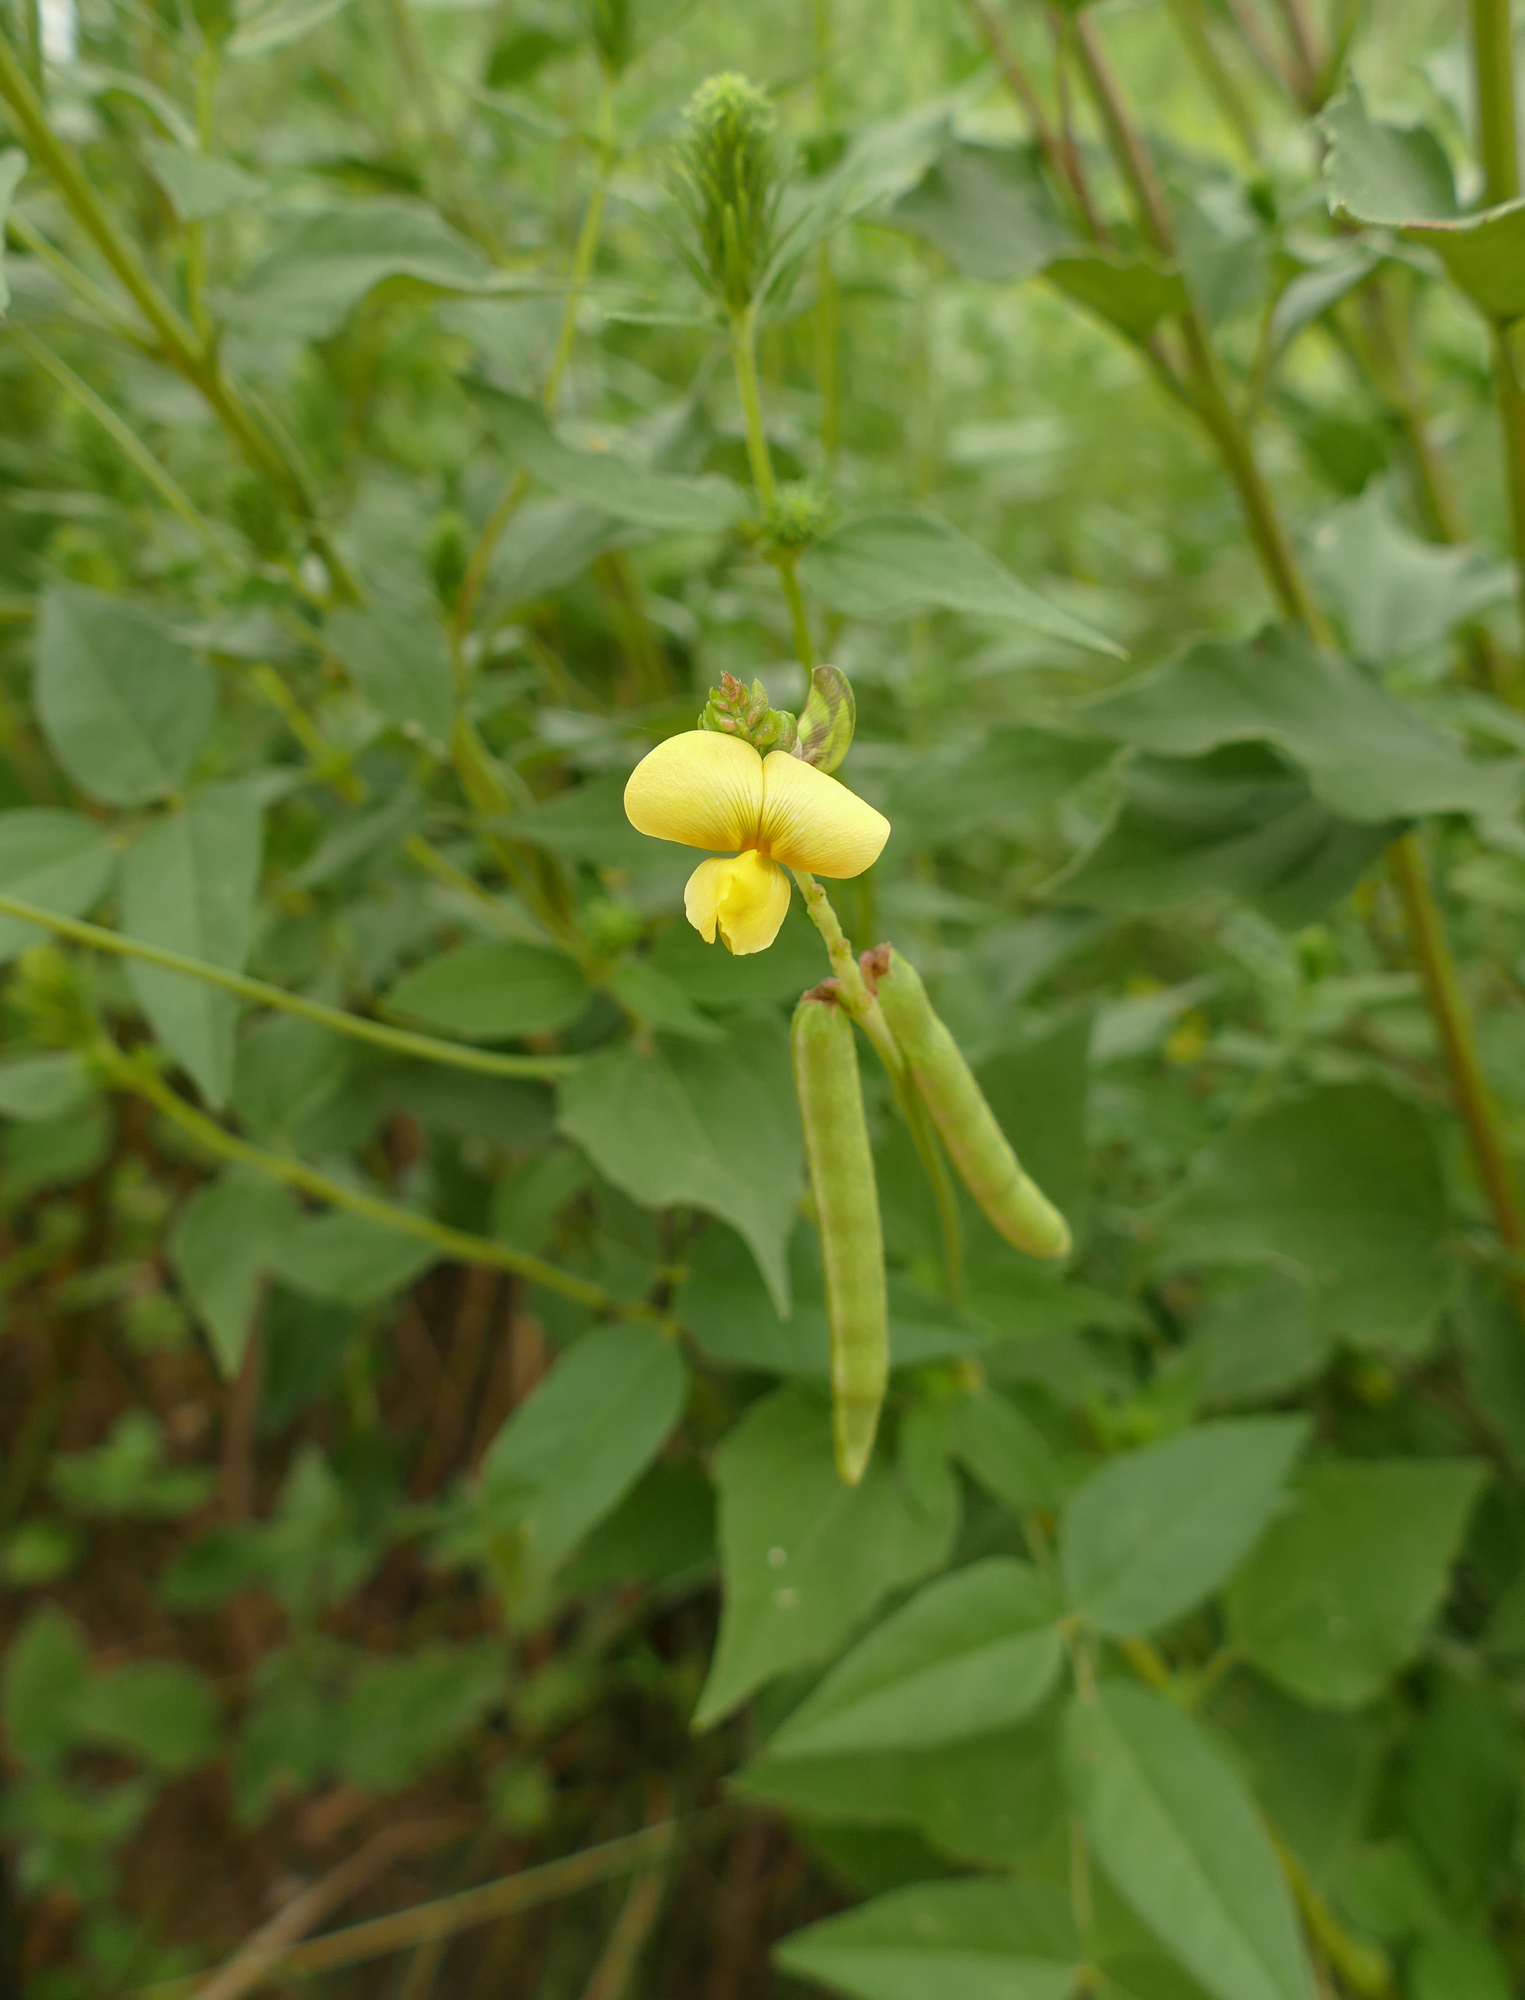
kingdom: Plantae
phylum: Tracheophyta
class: Magnoliopsida
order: Fabales
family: Fabaceae
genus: Vigna
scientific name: Vigna luteola
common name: Hairypod cowpea
